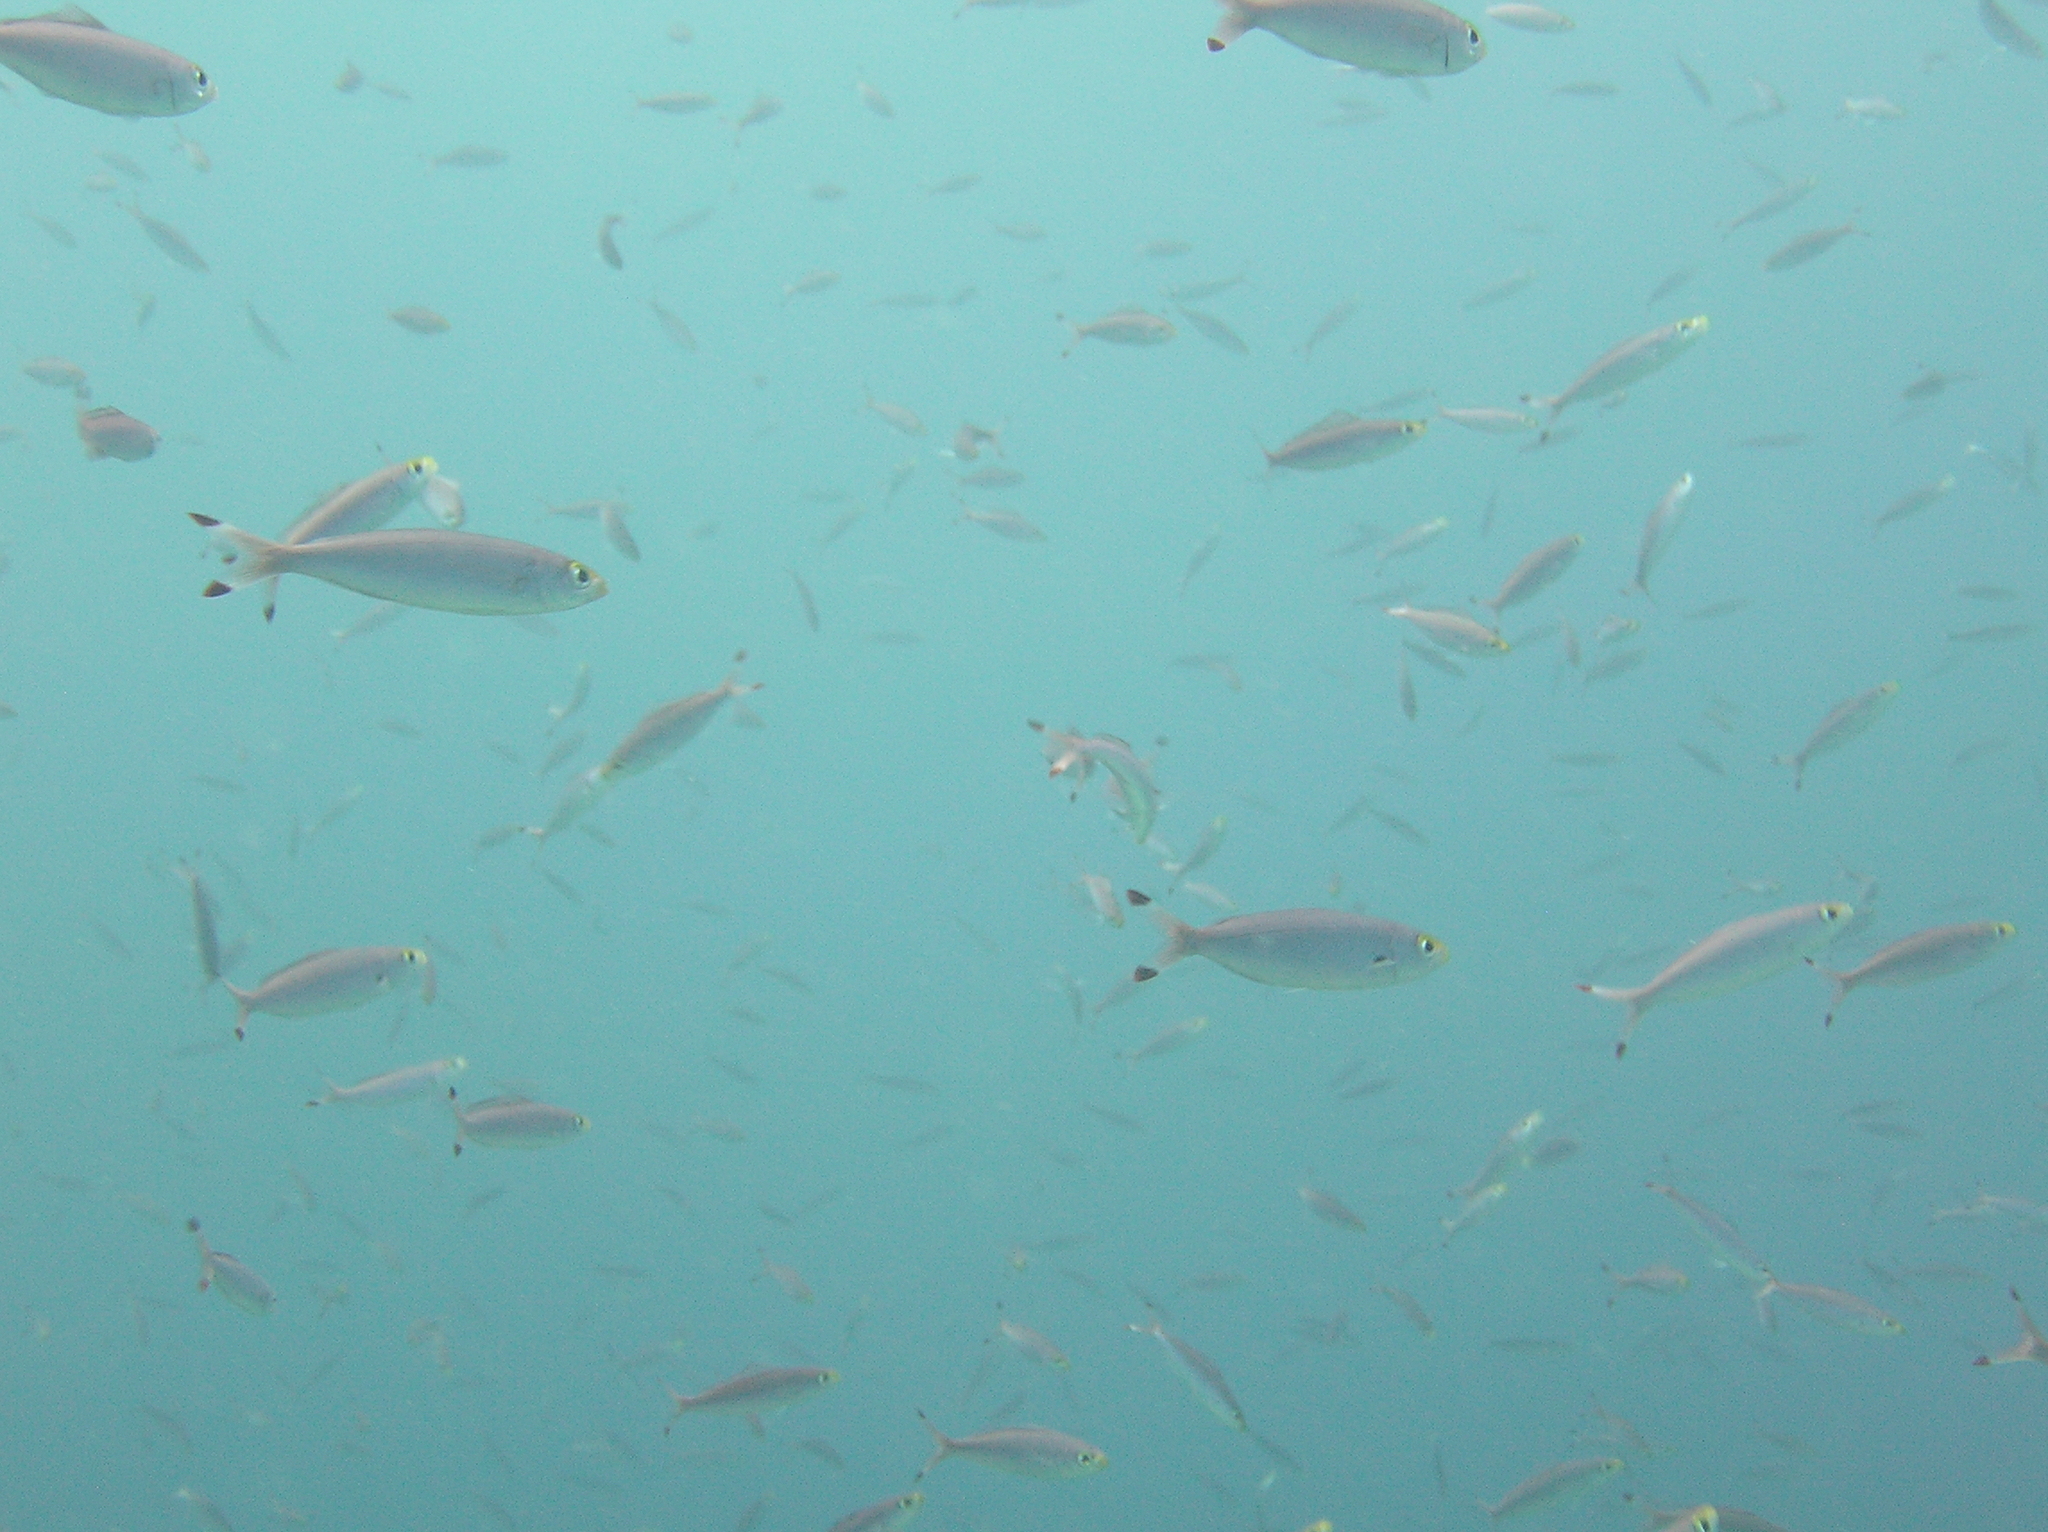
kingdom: Animalia
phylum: Chordata
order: Perciformes
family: Caesionidae
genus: Pterocaesio
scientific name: Pterocaesio pisang
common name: Banana fusilier
